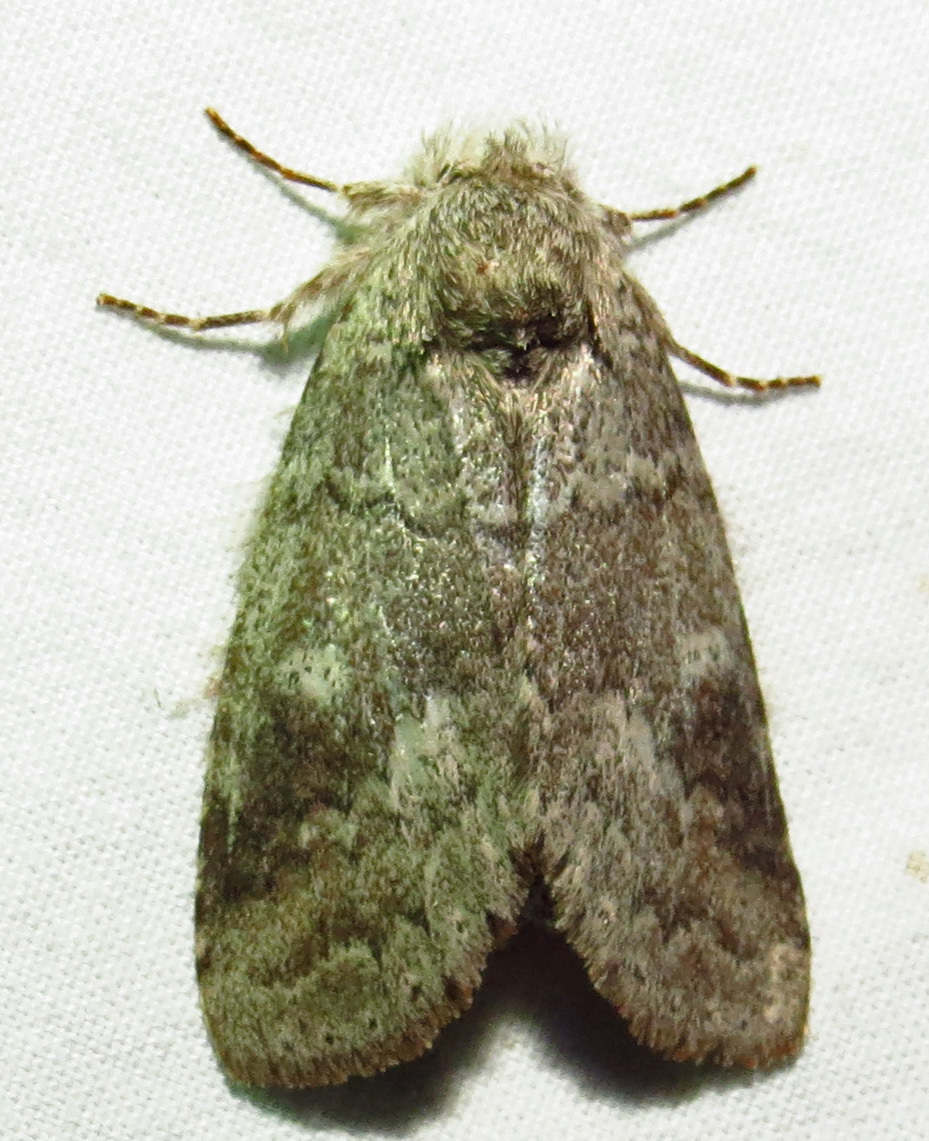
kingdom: Animalia
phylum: Arthropoda
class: Insecta
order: Lepidoptera
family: Notodontidae
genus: Lochmaeus
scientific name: Lochmaeus manteo
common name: Variable oakleaf caterpillar moth
